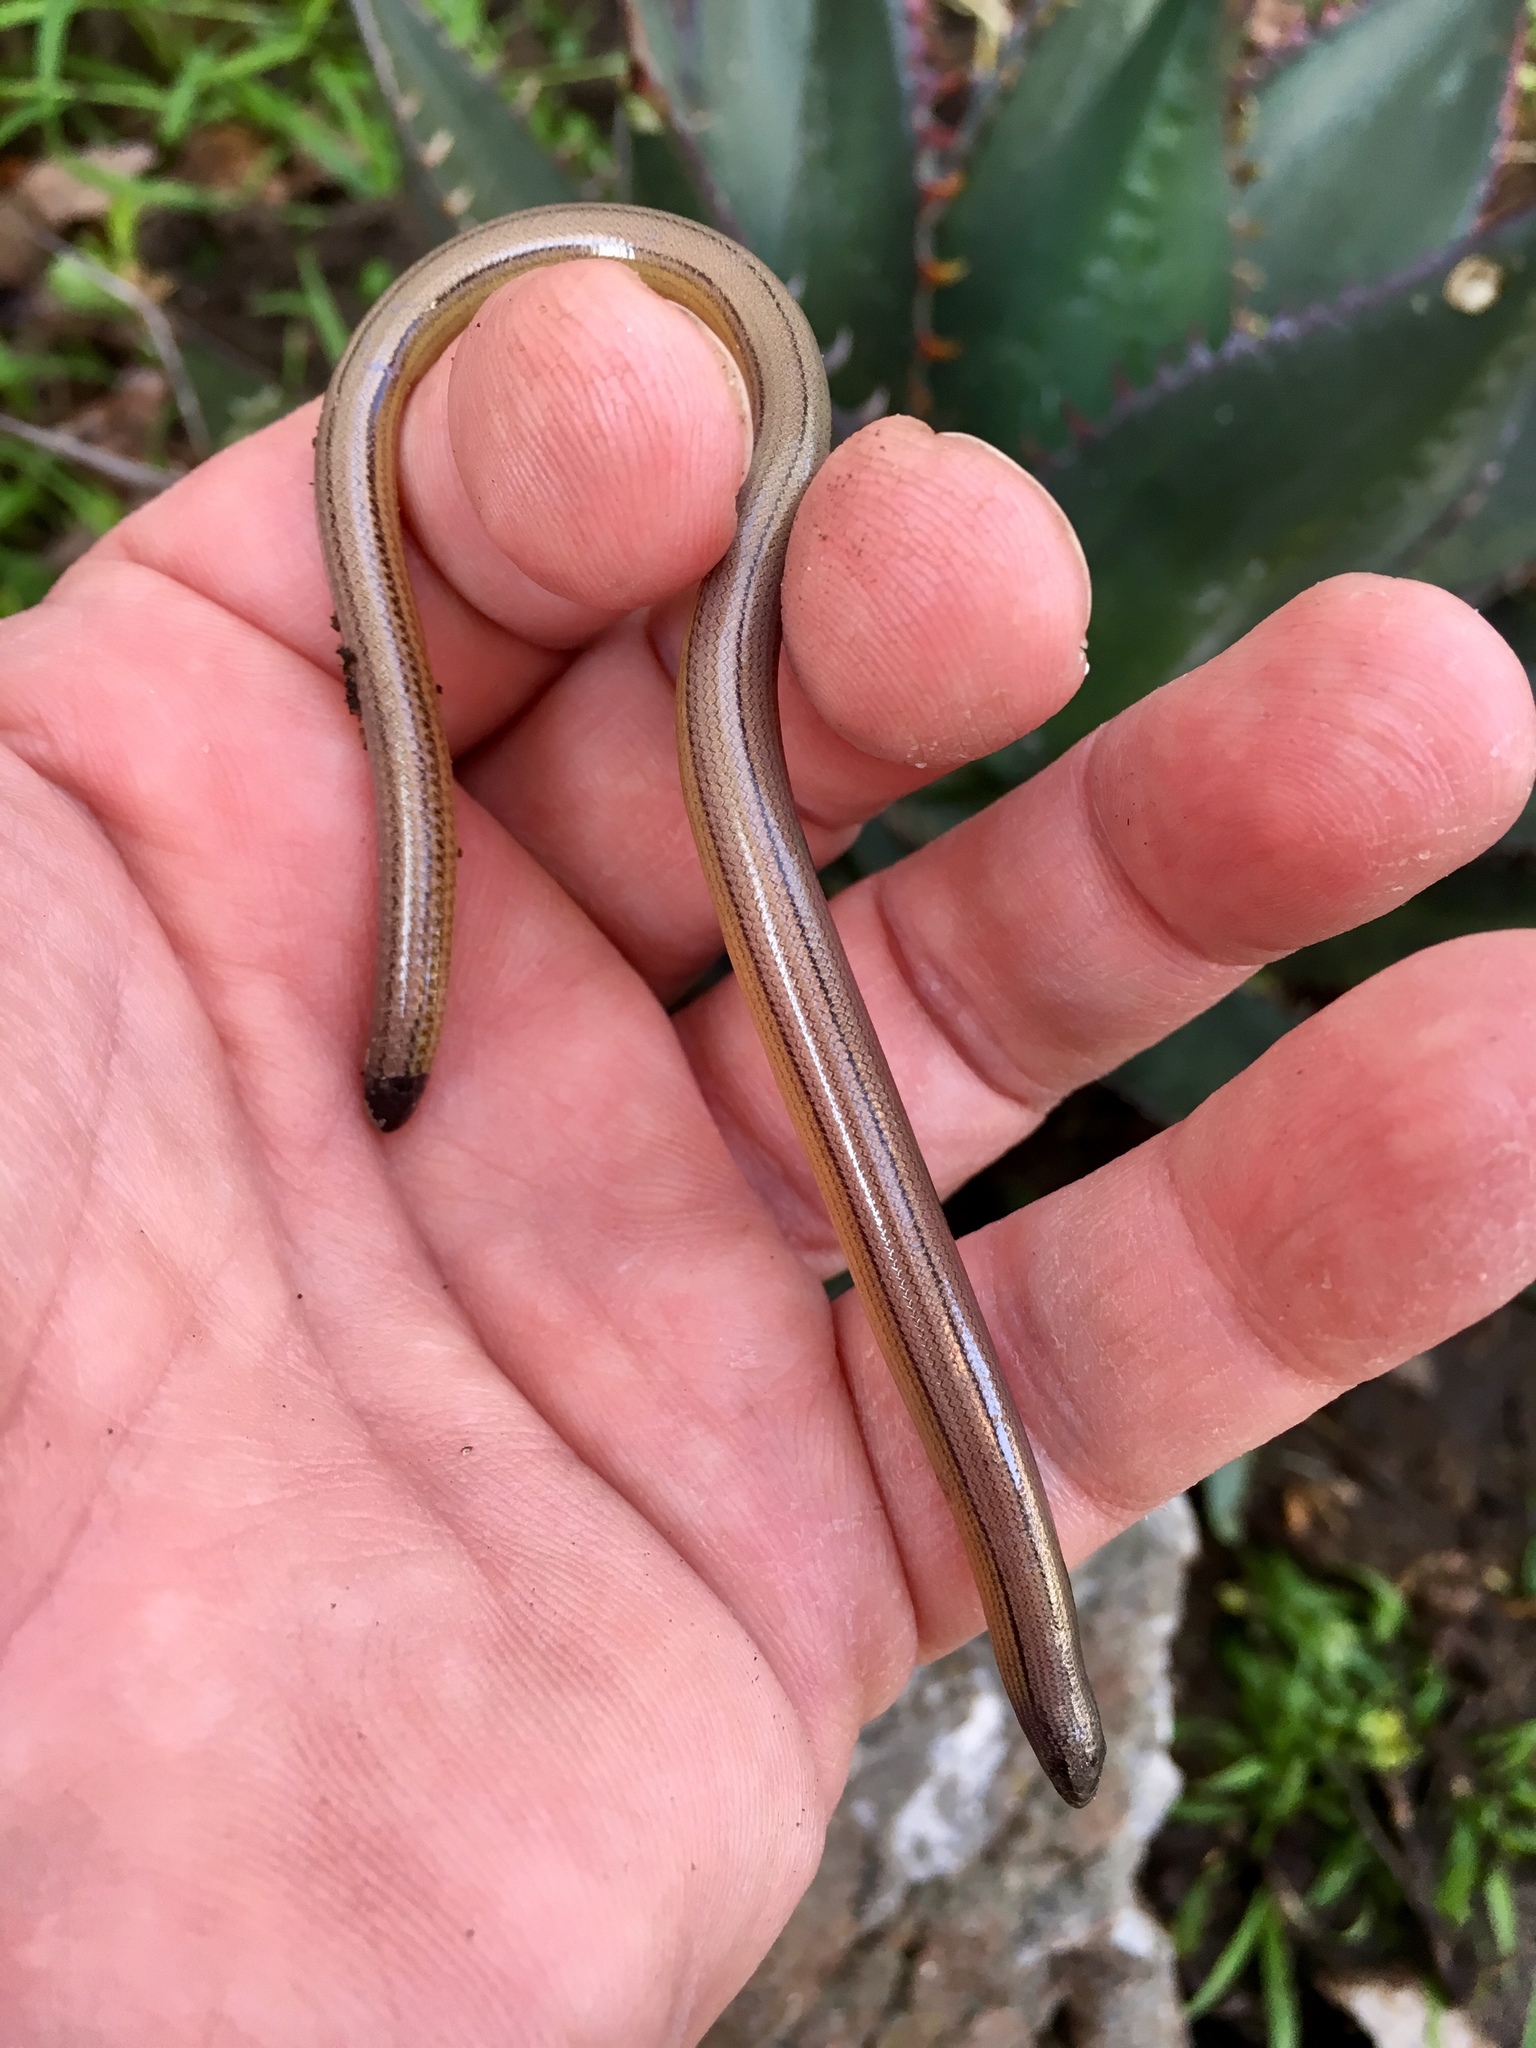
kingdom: Animalia
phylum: Chordata
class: Squamata
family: Anguidae
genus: Anniella
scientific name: Anniella stebbinsi
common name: Southern california legless lizard
